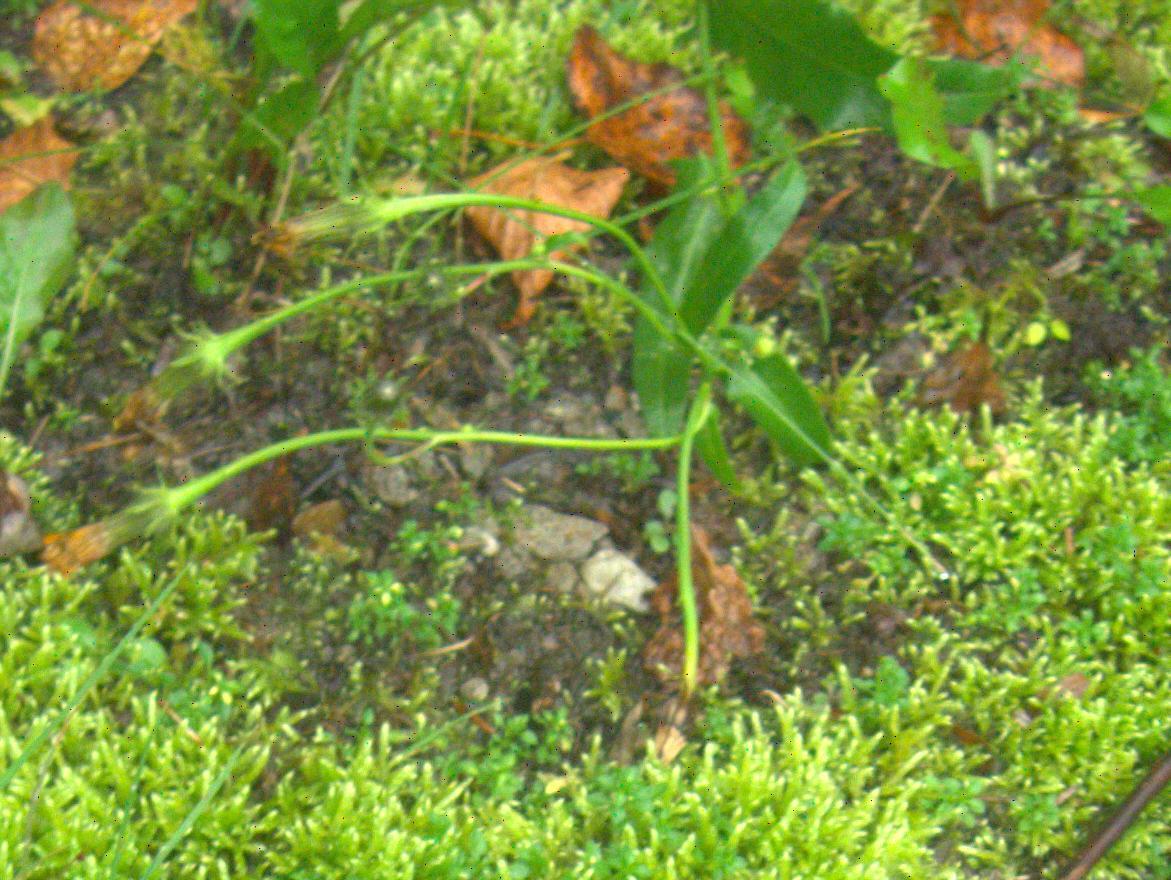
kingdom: Plantae
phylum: Tracheophyta
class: Magnoliopsida
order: Asterales
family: Asteraceae
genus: Picris
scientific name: Picris hieracioides
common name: Hawkweed oxtongue
